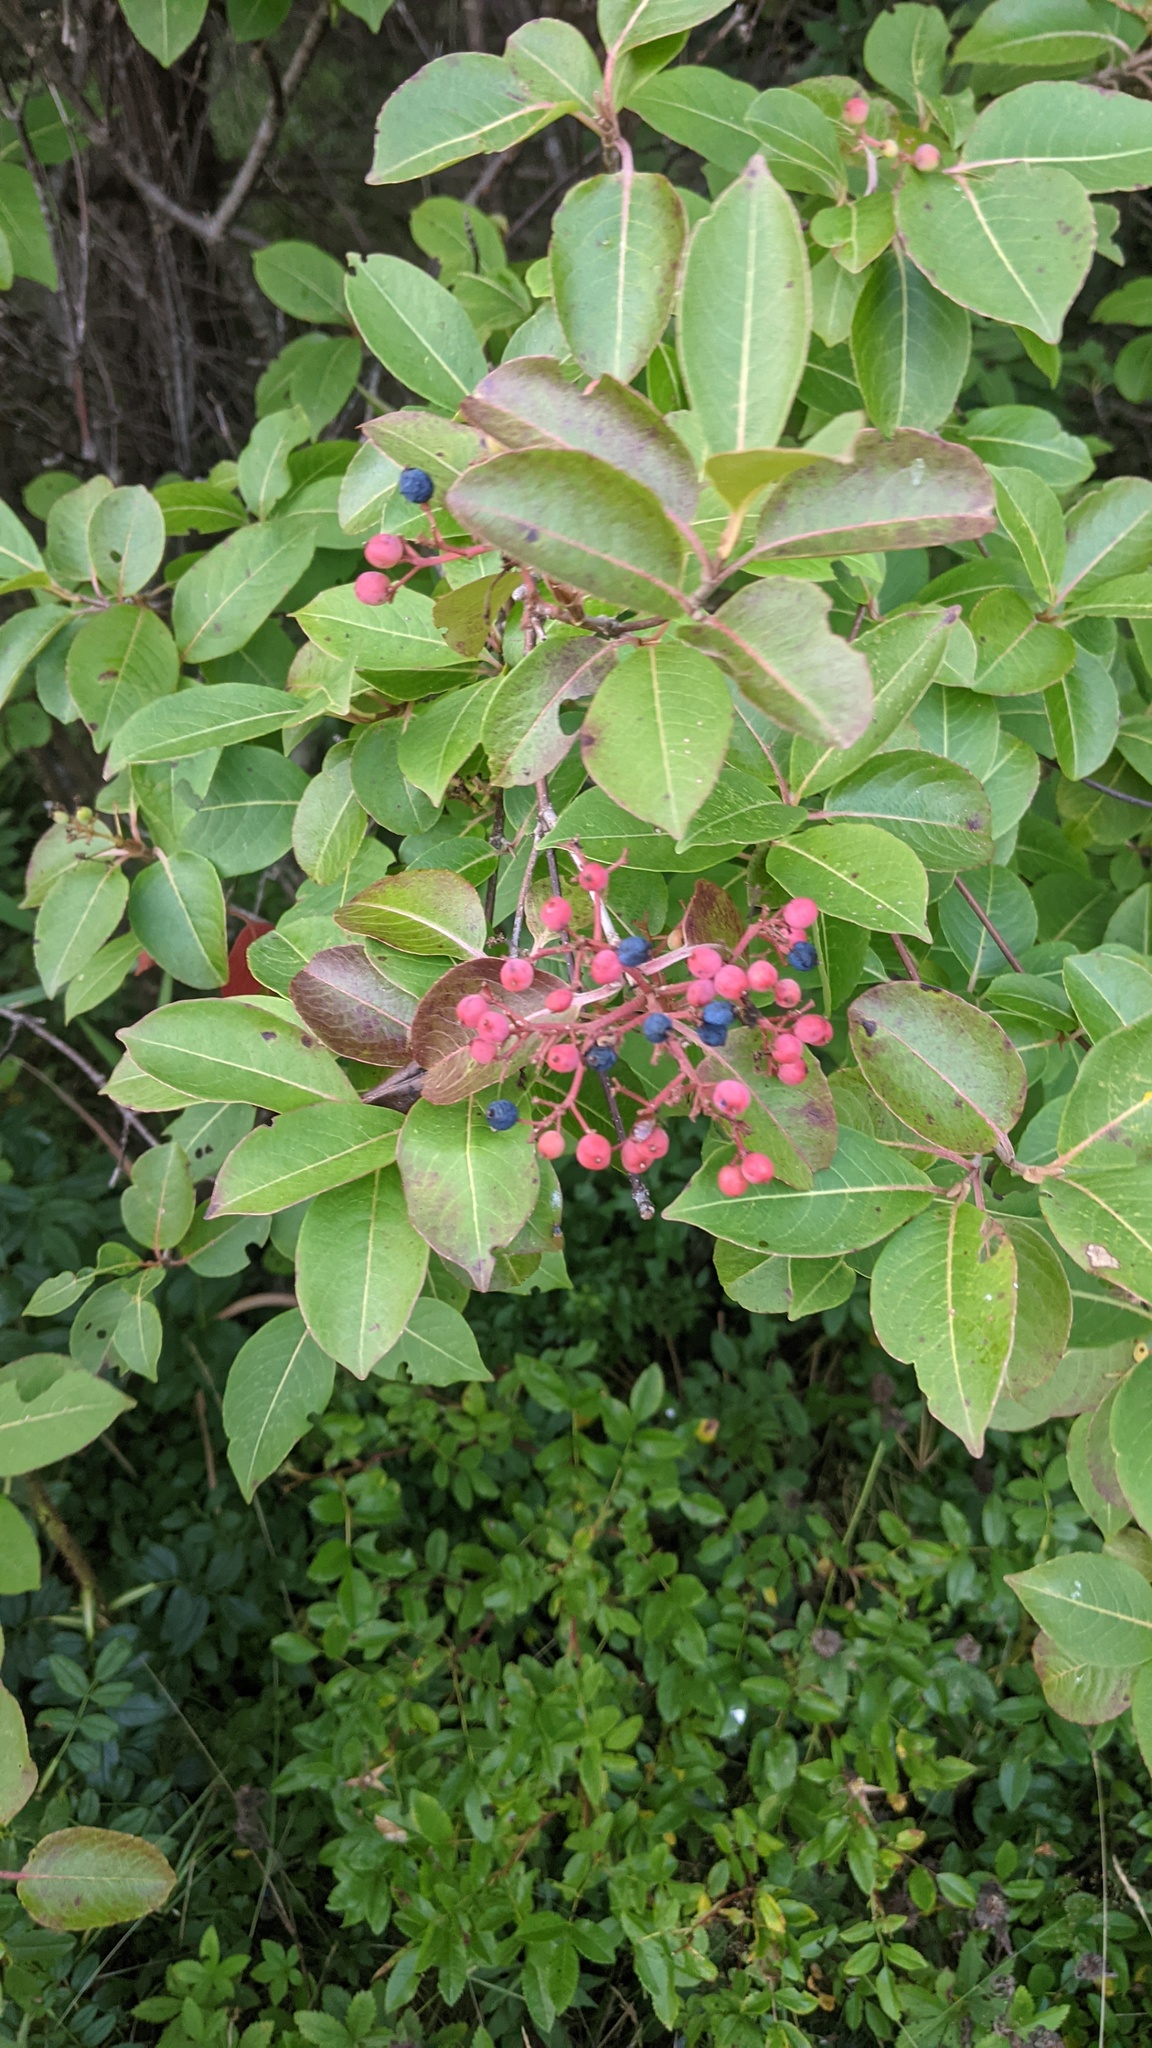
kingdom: Plantae
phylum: Tracheophyta
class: Magnoliopsida
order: Dipsacales
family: Viburnaceae
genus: Viburnum
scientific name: Viburnum cassinoides
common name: Swamp haw
